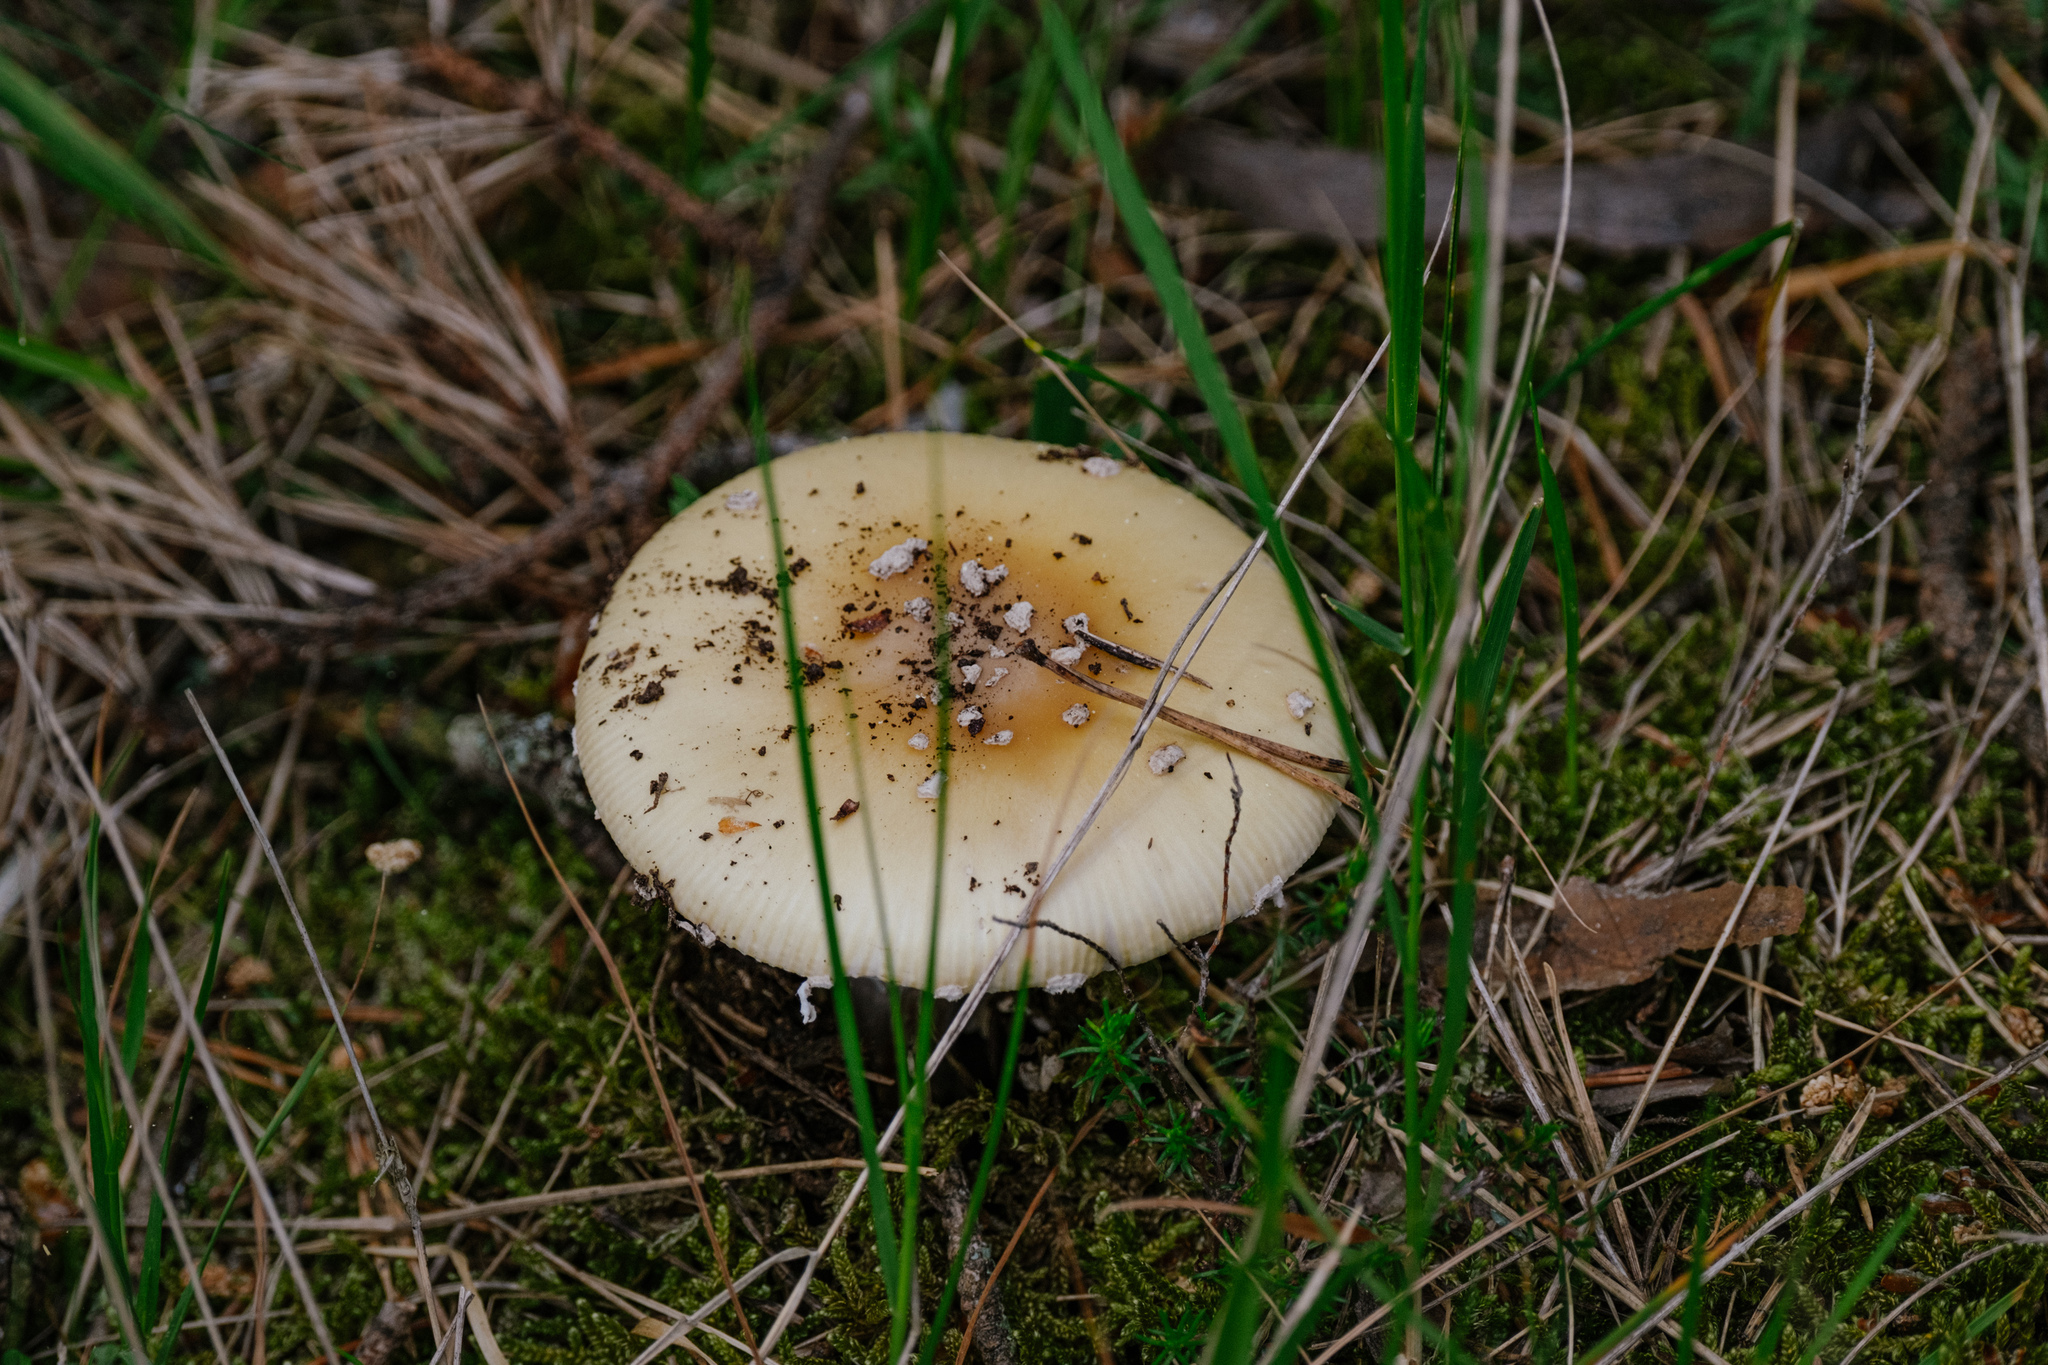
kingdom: Fungi
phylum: Basidiomycota
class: Agaricomycetes
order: Agaricales
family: Amanitaceae
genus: Amanita
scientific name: Amanita gemmata
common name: Jewelled amanita
